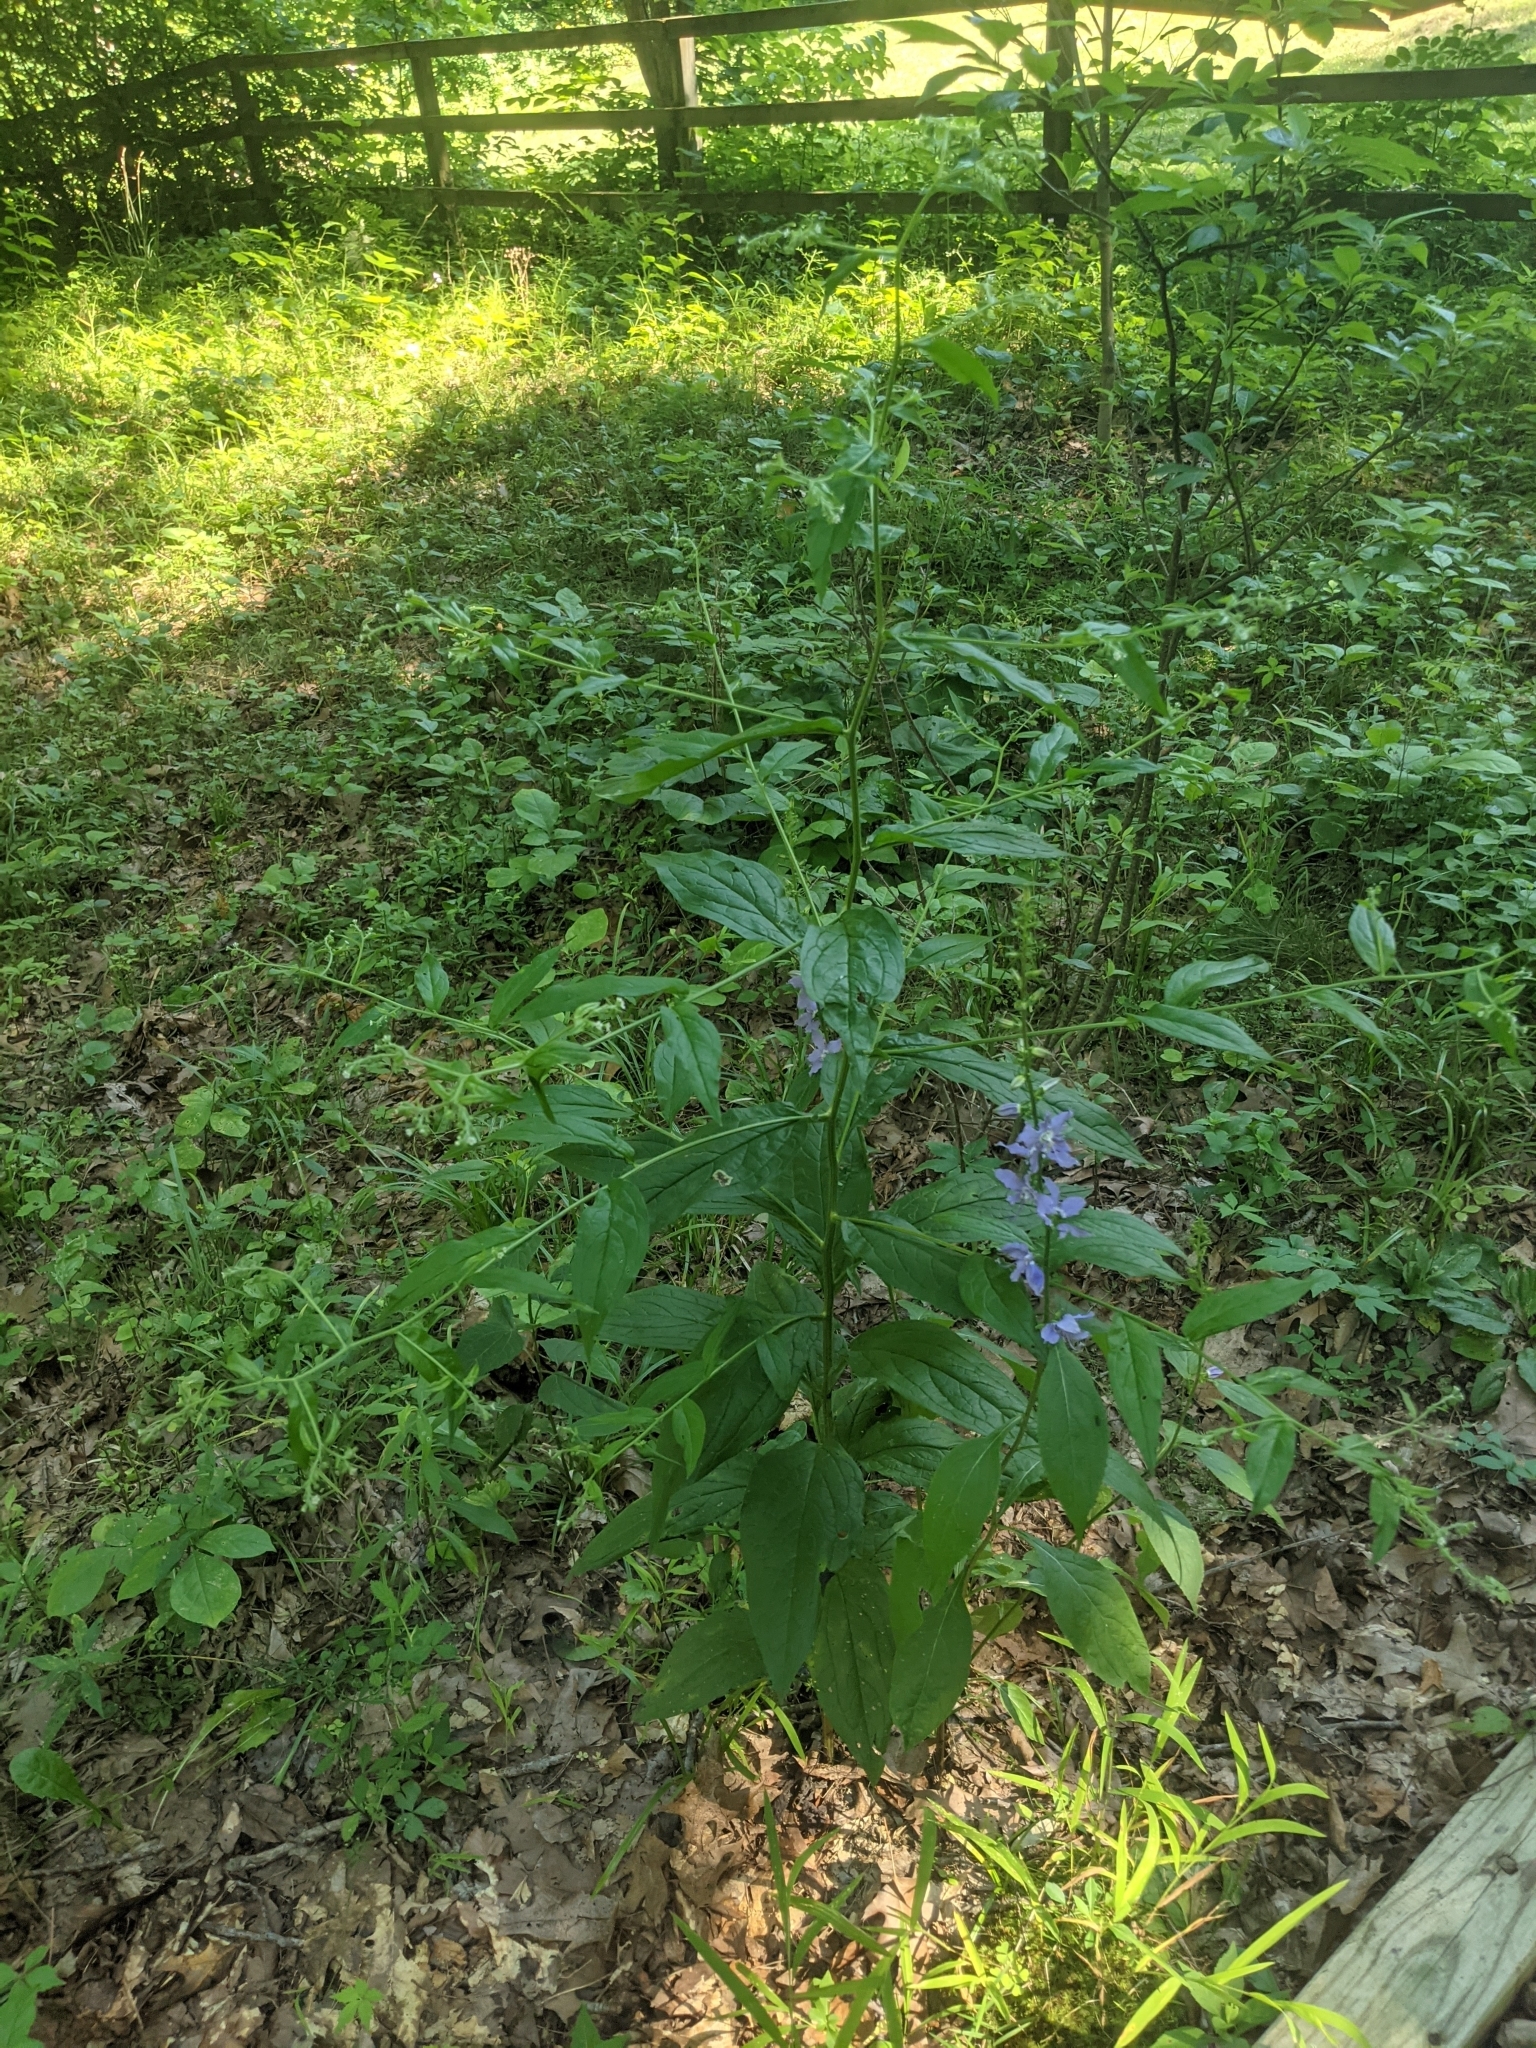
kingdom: Plantae
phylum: Tracheophyta
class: Magnoliopsida
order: Boraginales
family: Boraginaceae
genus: Hackelia
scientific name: Hackelia virginiana
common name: Beggar's-lice
